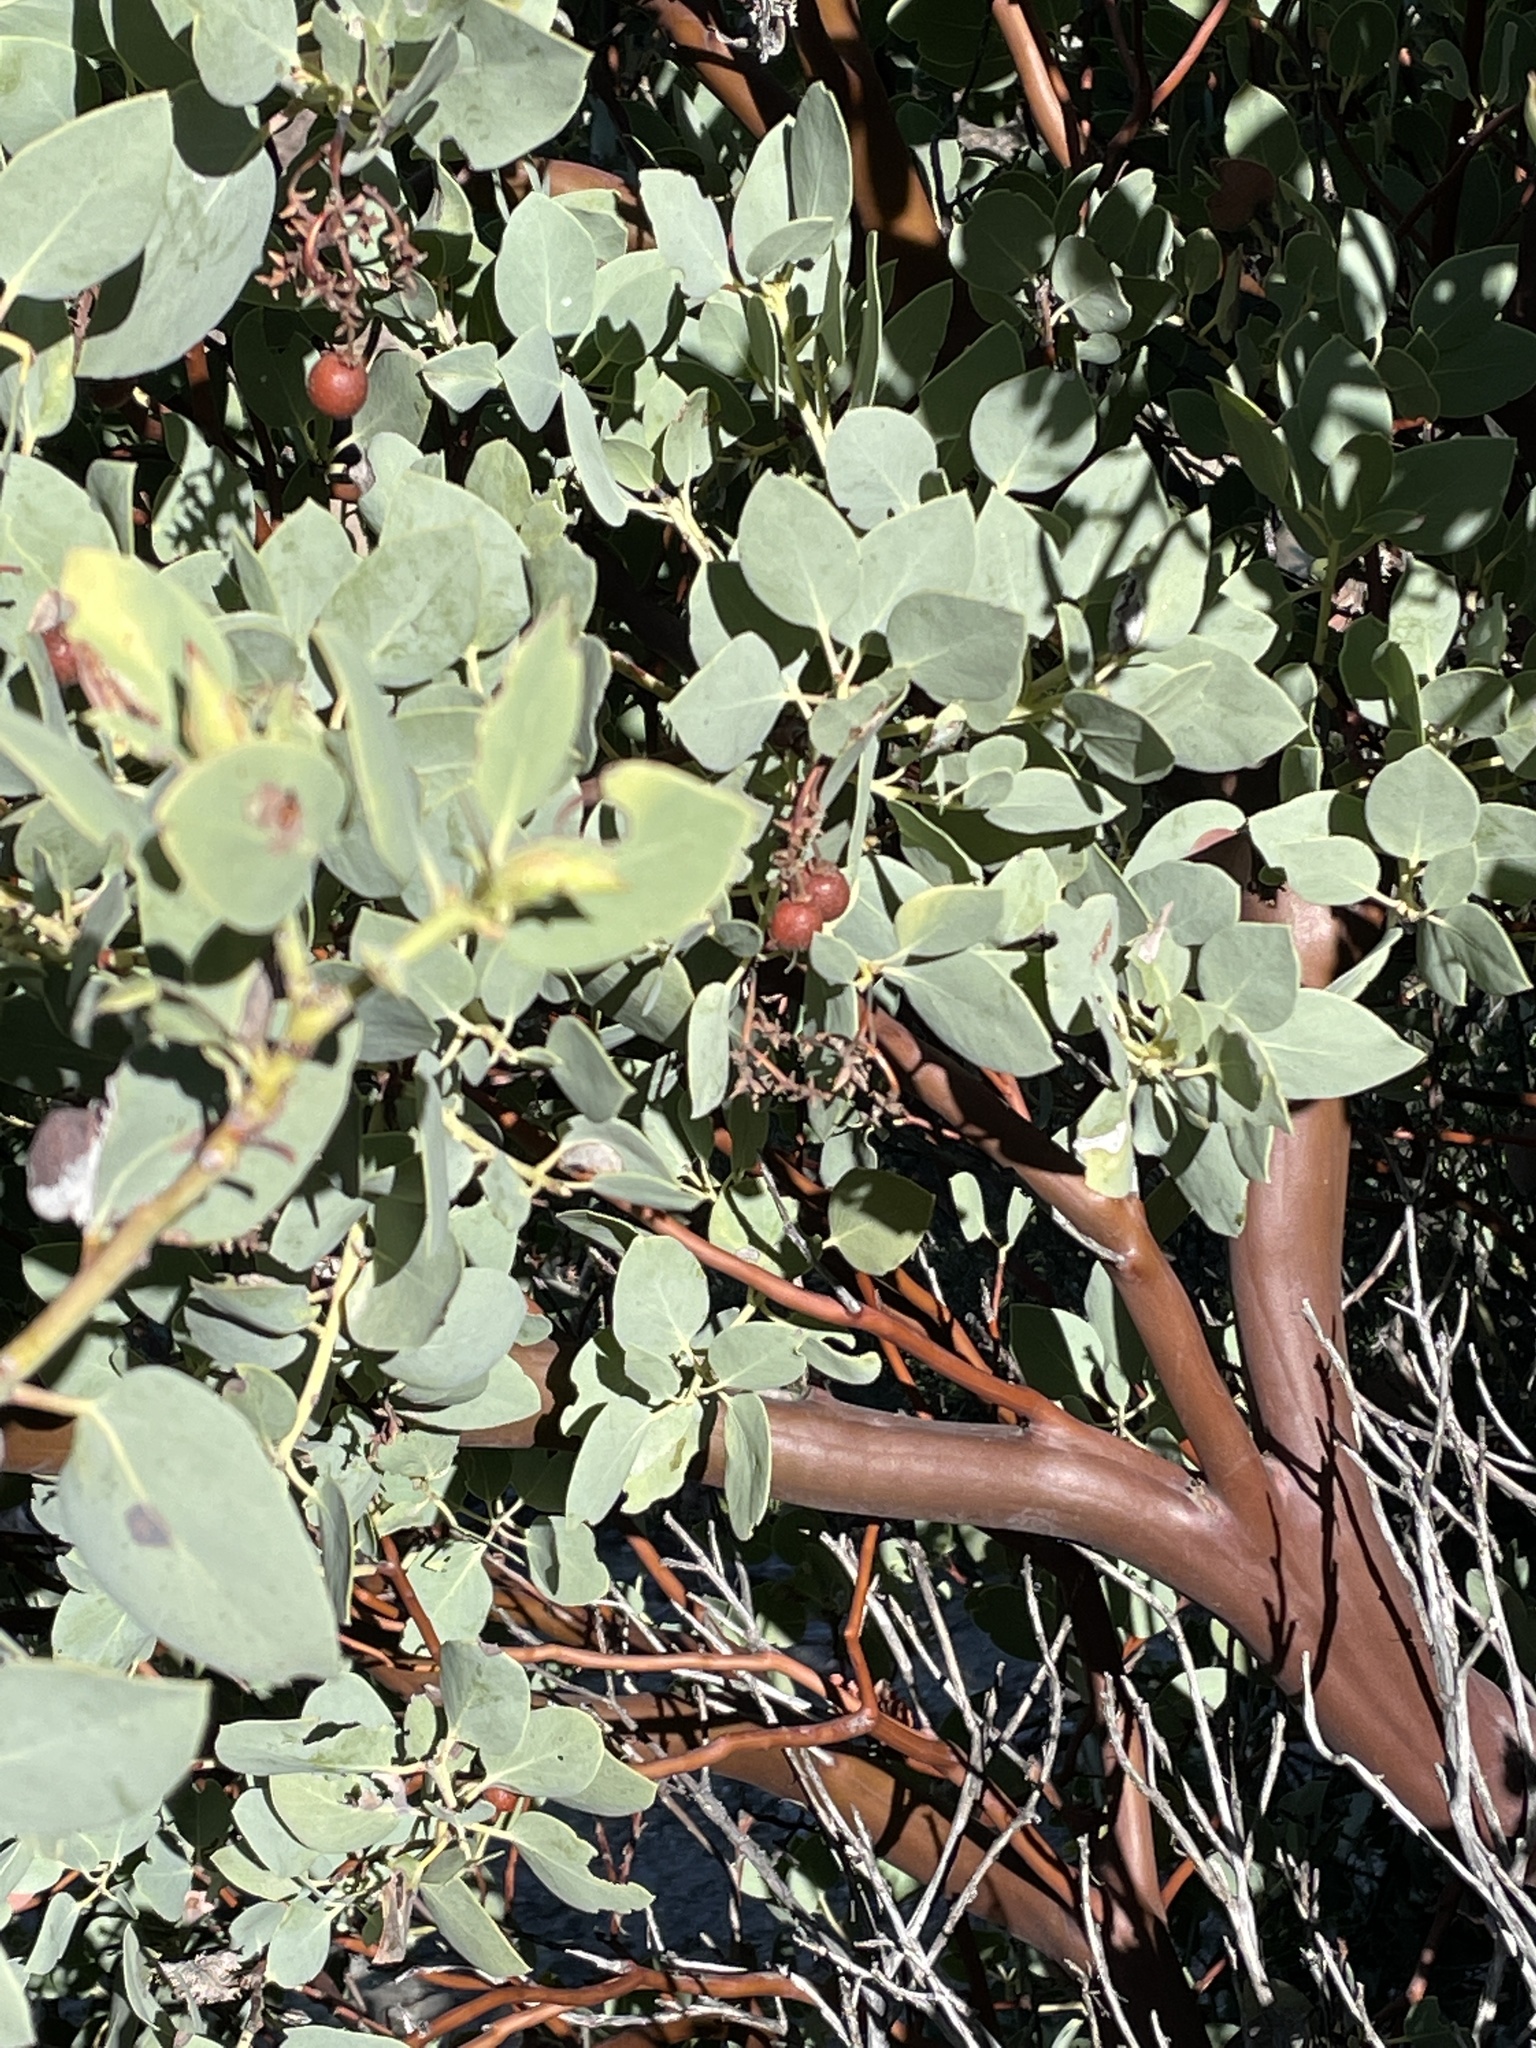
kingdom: Plantae
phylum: Tracheophyta
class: Magnoliopsida
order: Ericales
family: Ericaceae
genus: Arctostaphylos
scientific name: Arctostaphylos glauca
